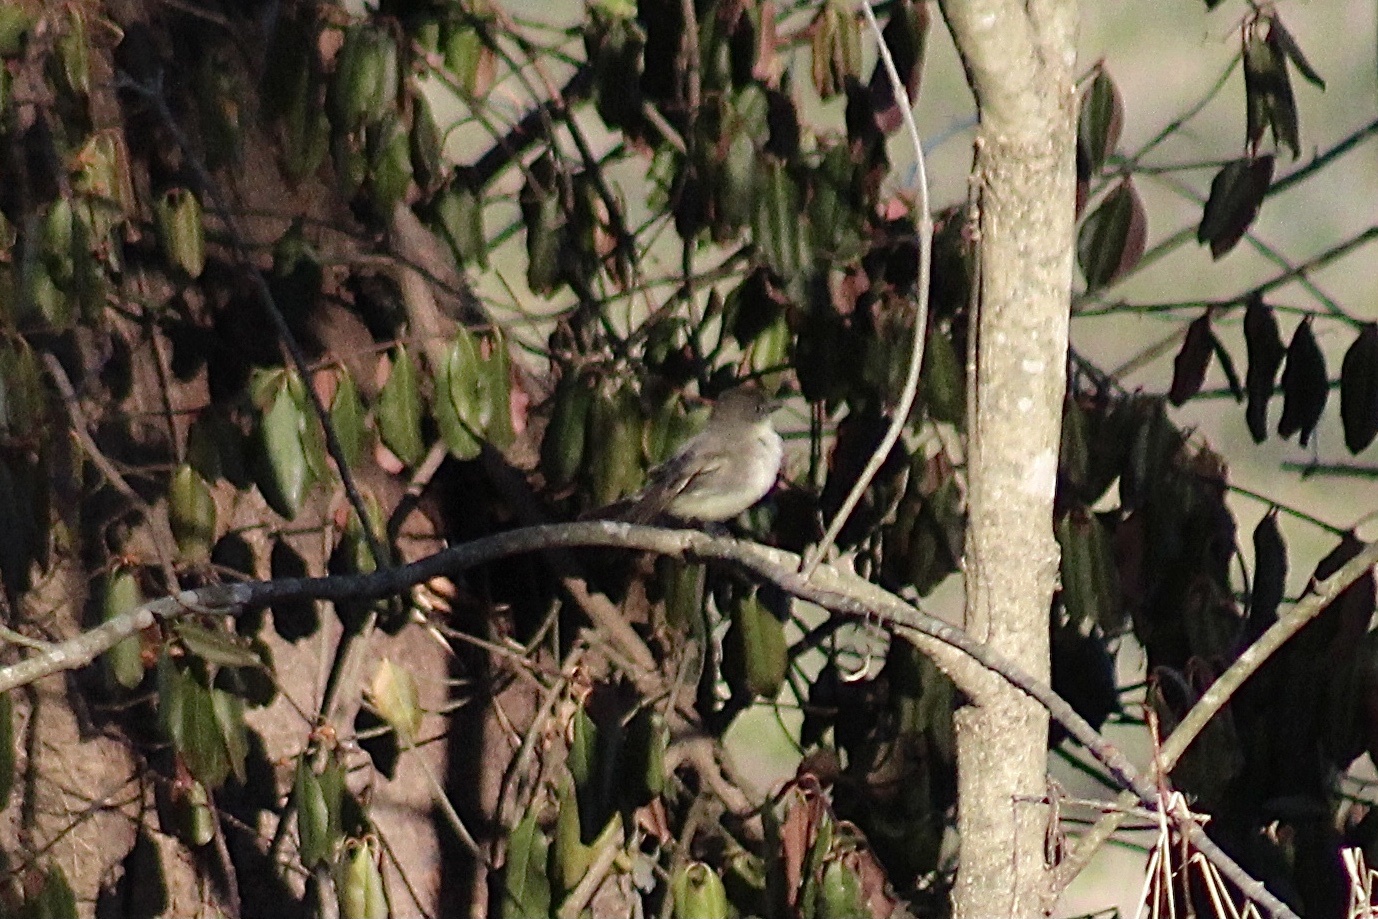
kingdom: Animalia
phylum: Chordata
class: Aves
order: Passeriformes
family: Tyrannidae
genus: Sayornis
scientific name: Sayornis phoebe
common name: Eastern phoebe
